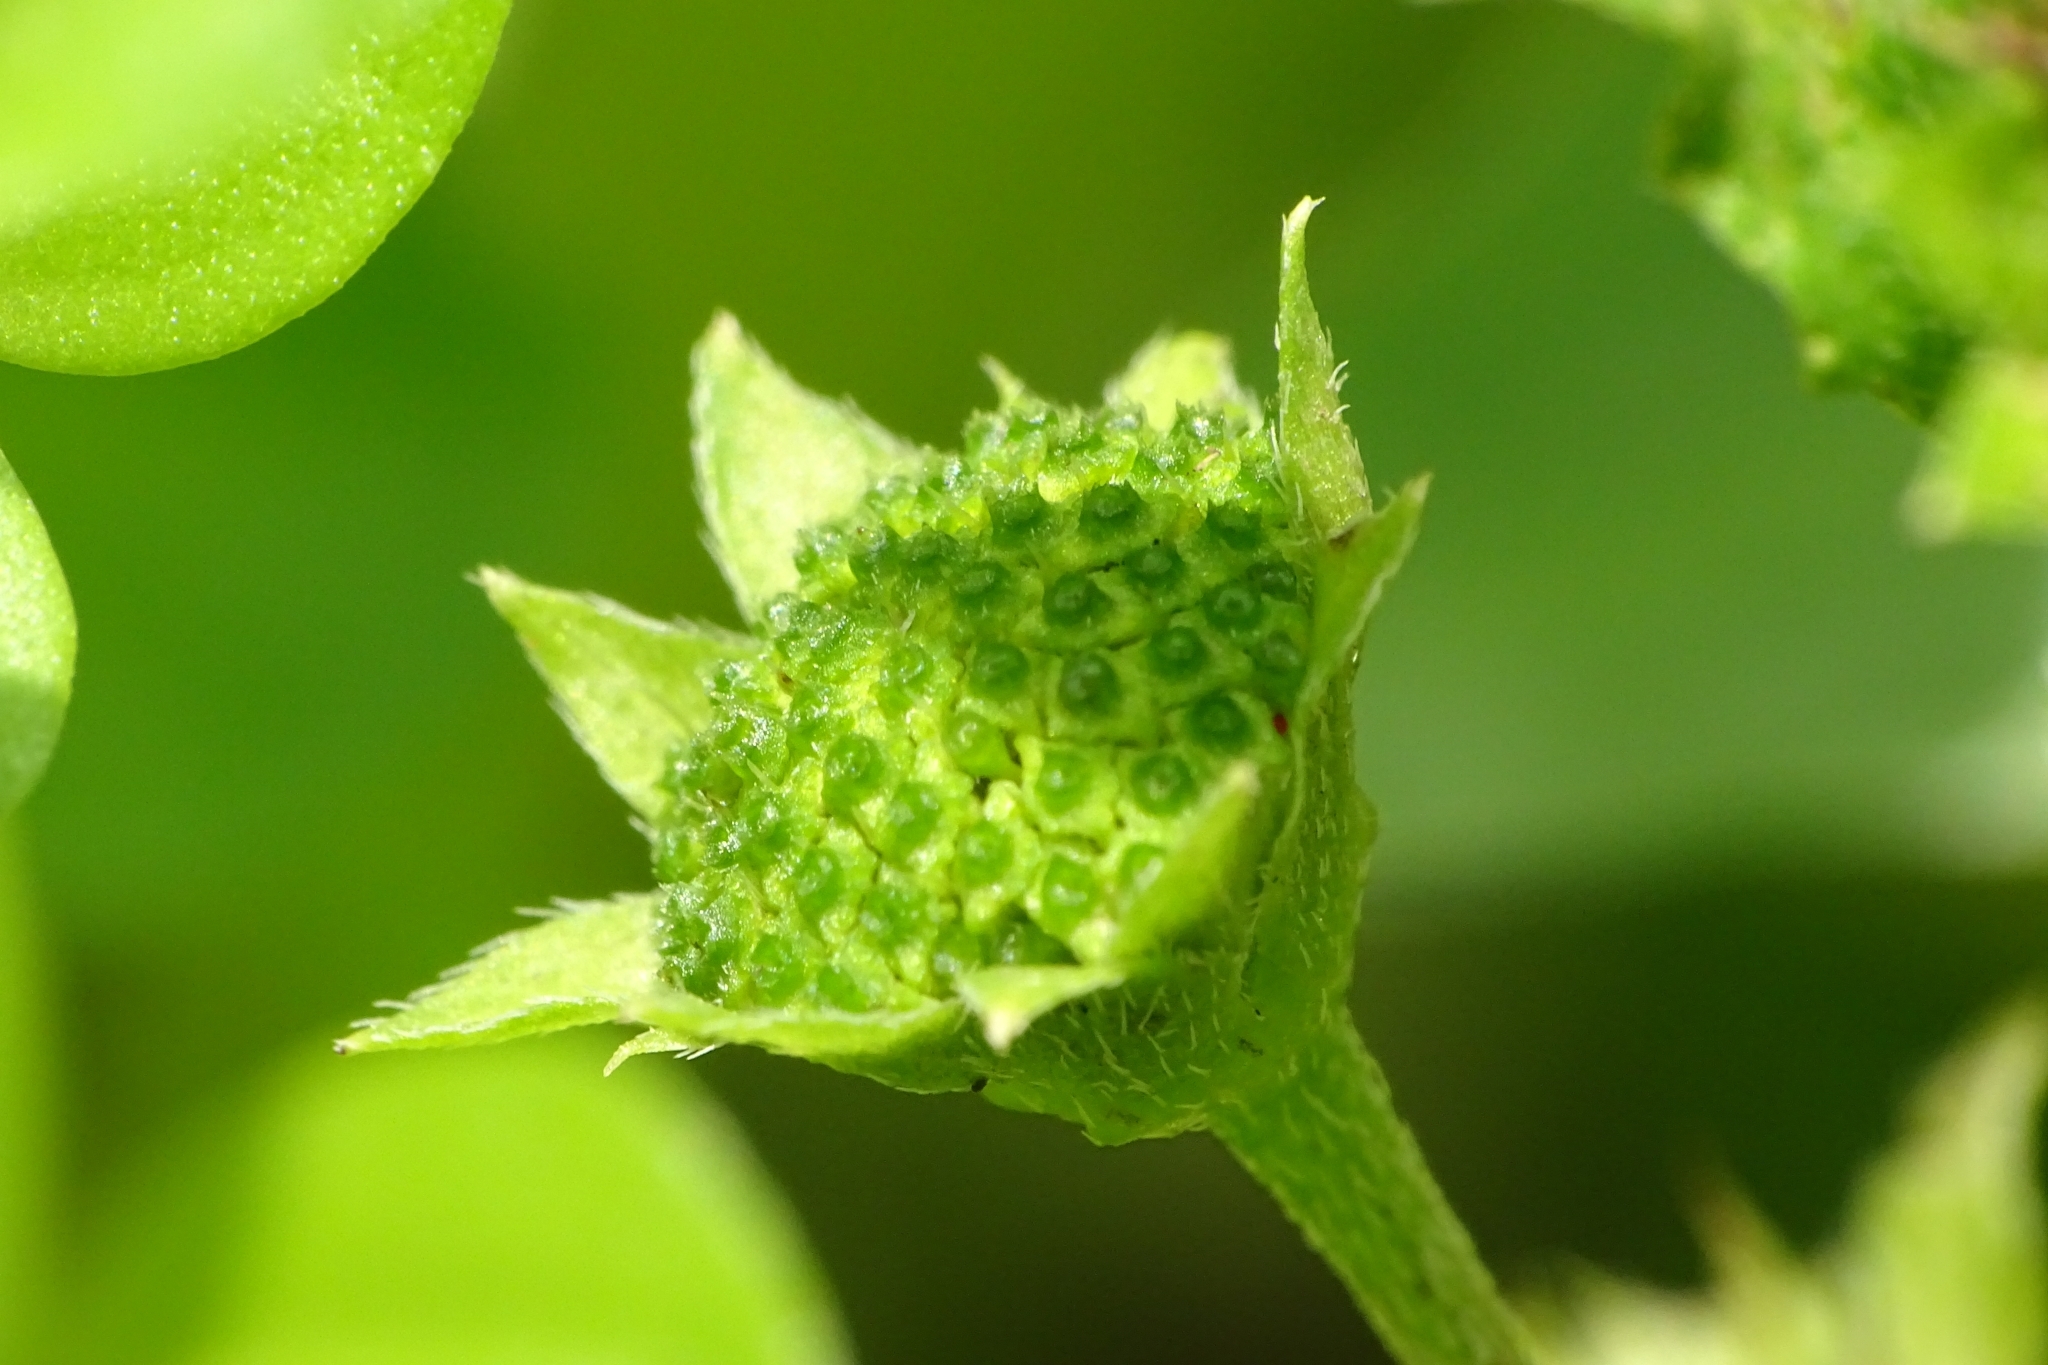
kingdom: Plantae
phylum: Tracheophyta
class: Magnoliopsida
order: Asterales
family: Asteraceae
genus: Eclipta
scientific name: Eclipta prostrata
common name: False daisy
